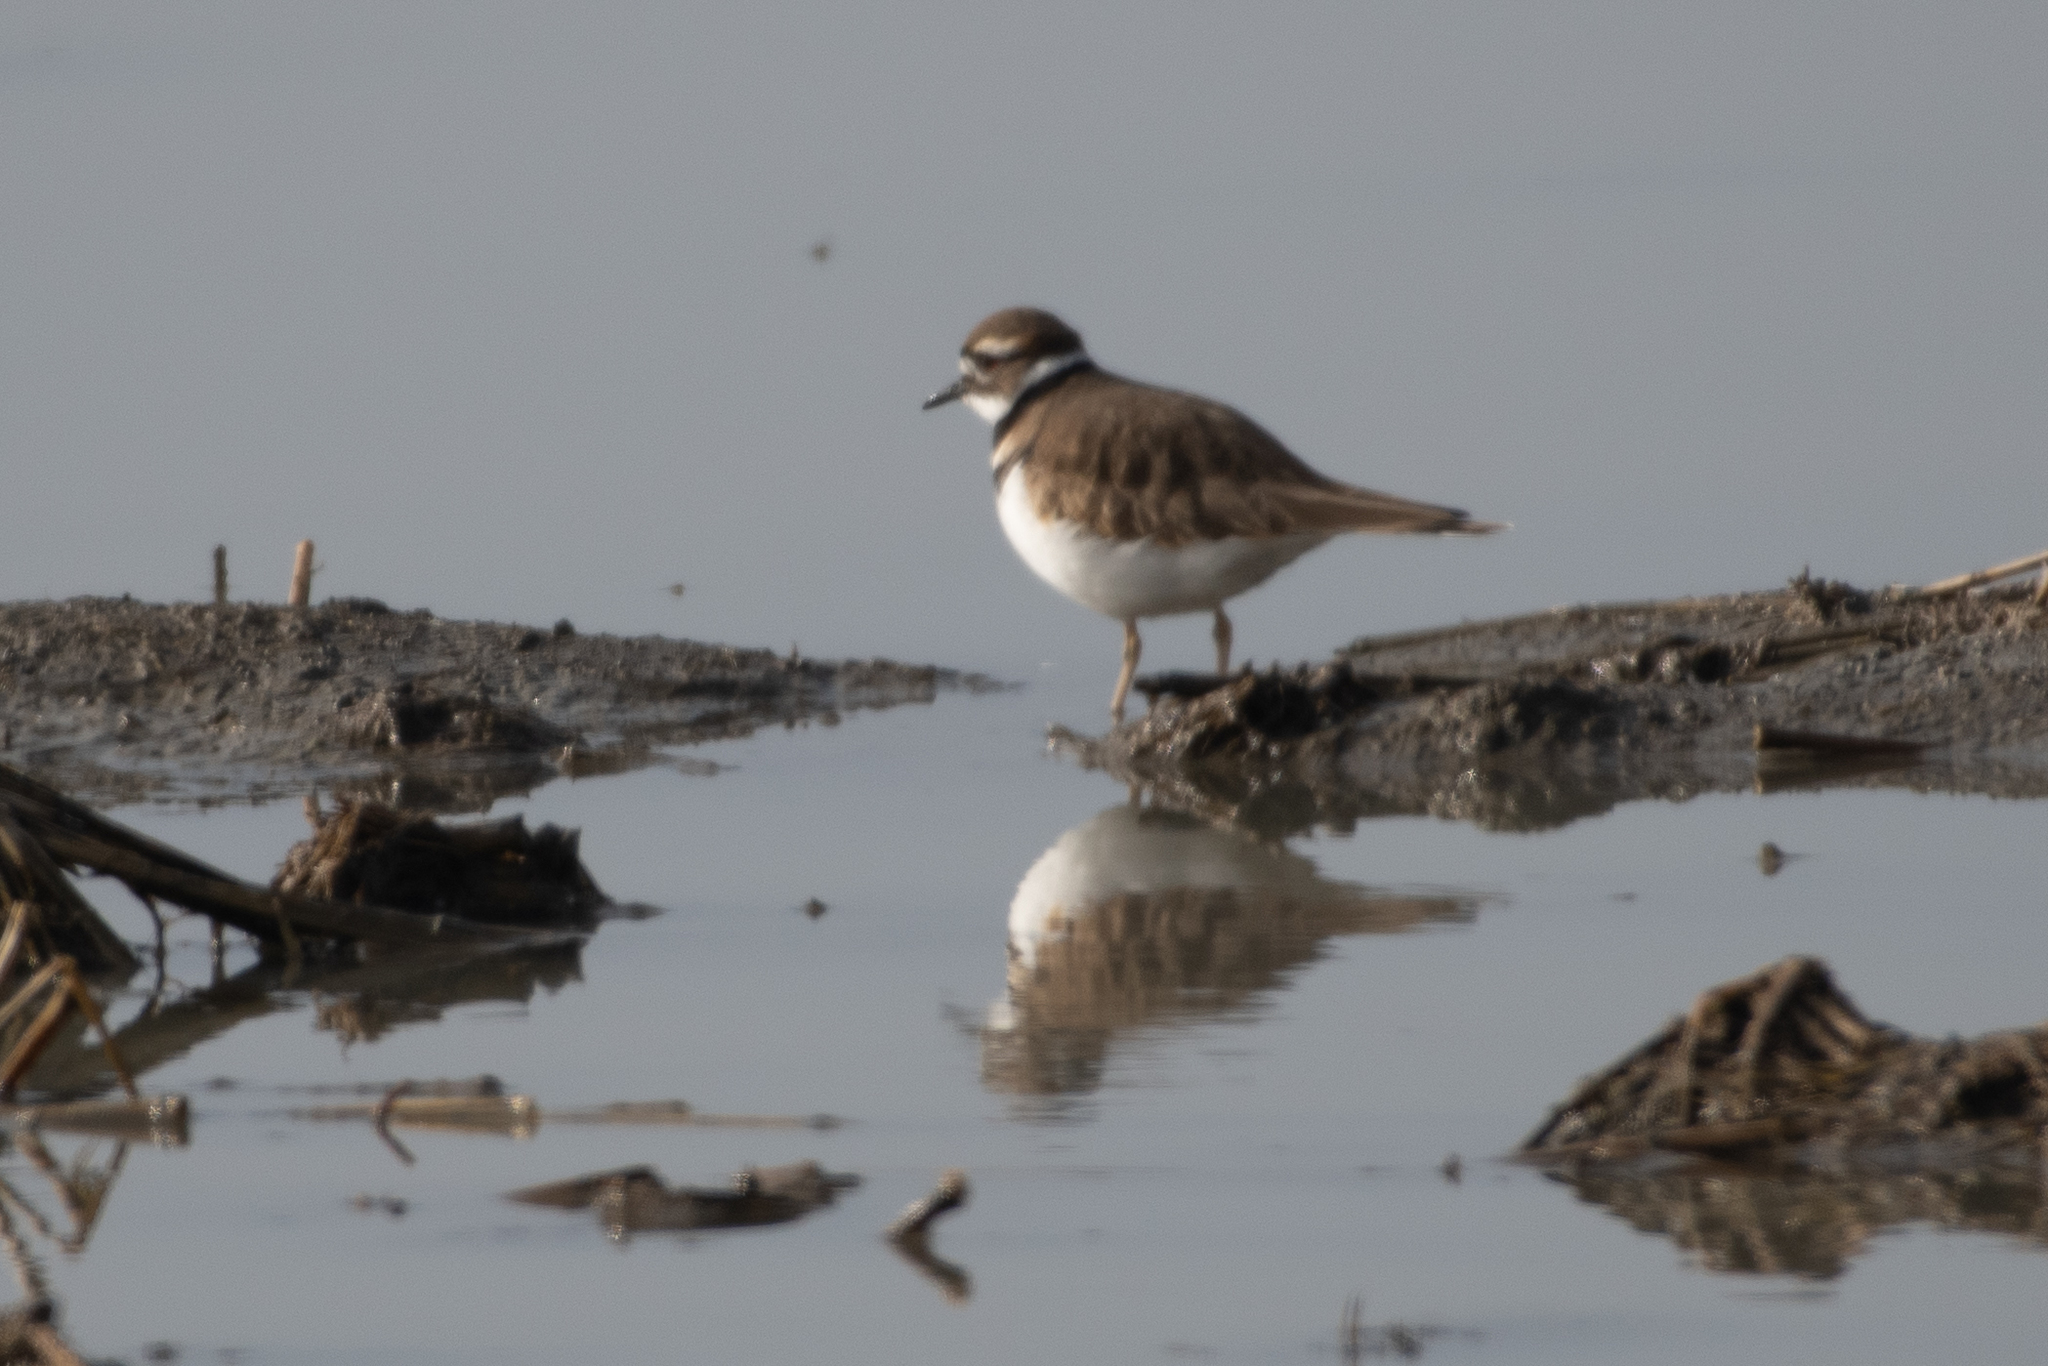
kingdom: Animalia
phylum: Chordata
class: Aves
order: Charadriiformes
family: Charadriidae
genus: Charadrius
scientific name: Charadrius vociferus
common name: Killdeer
